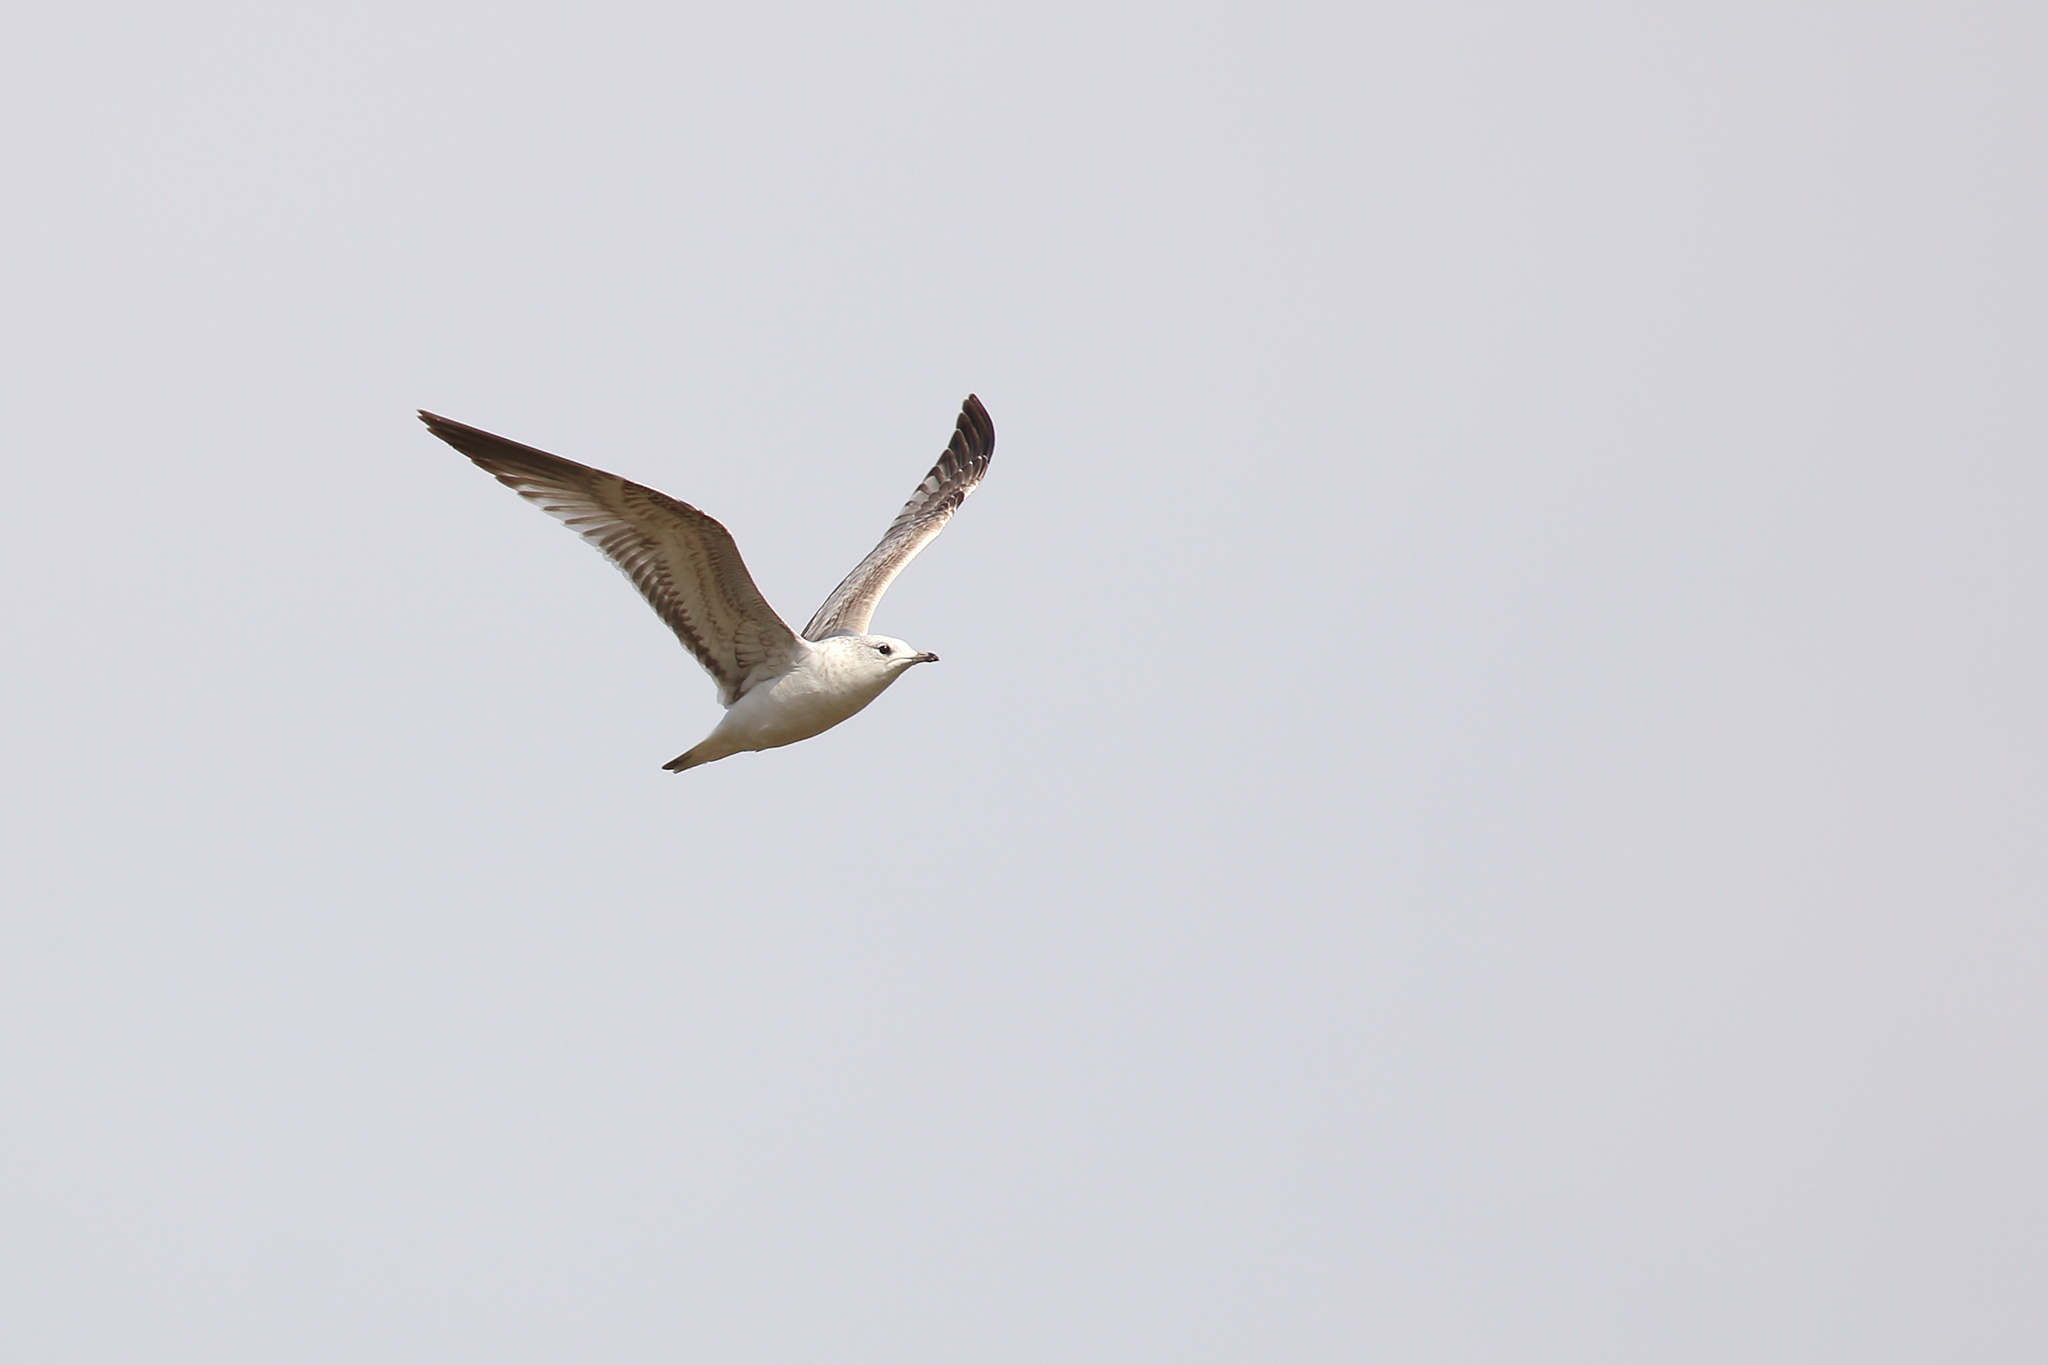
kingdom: Animalia
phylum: Chordata
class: Aves
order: Charadriiformes
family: Laridae
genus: Larus
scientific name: Larus canus
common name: Mew gull
